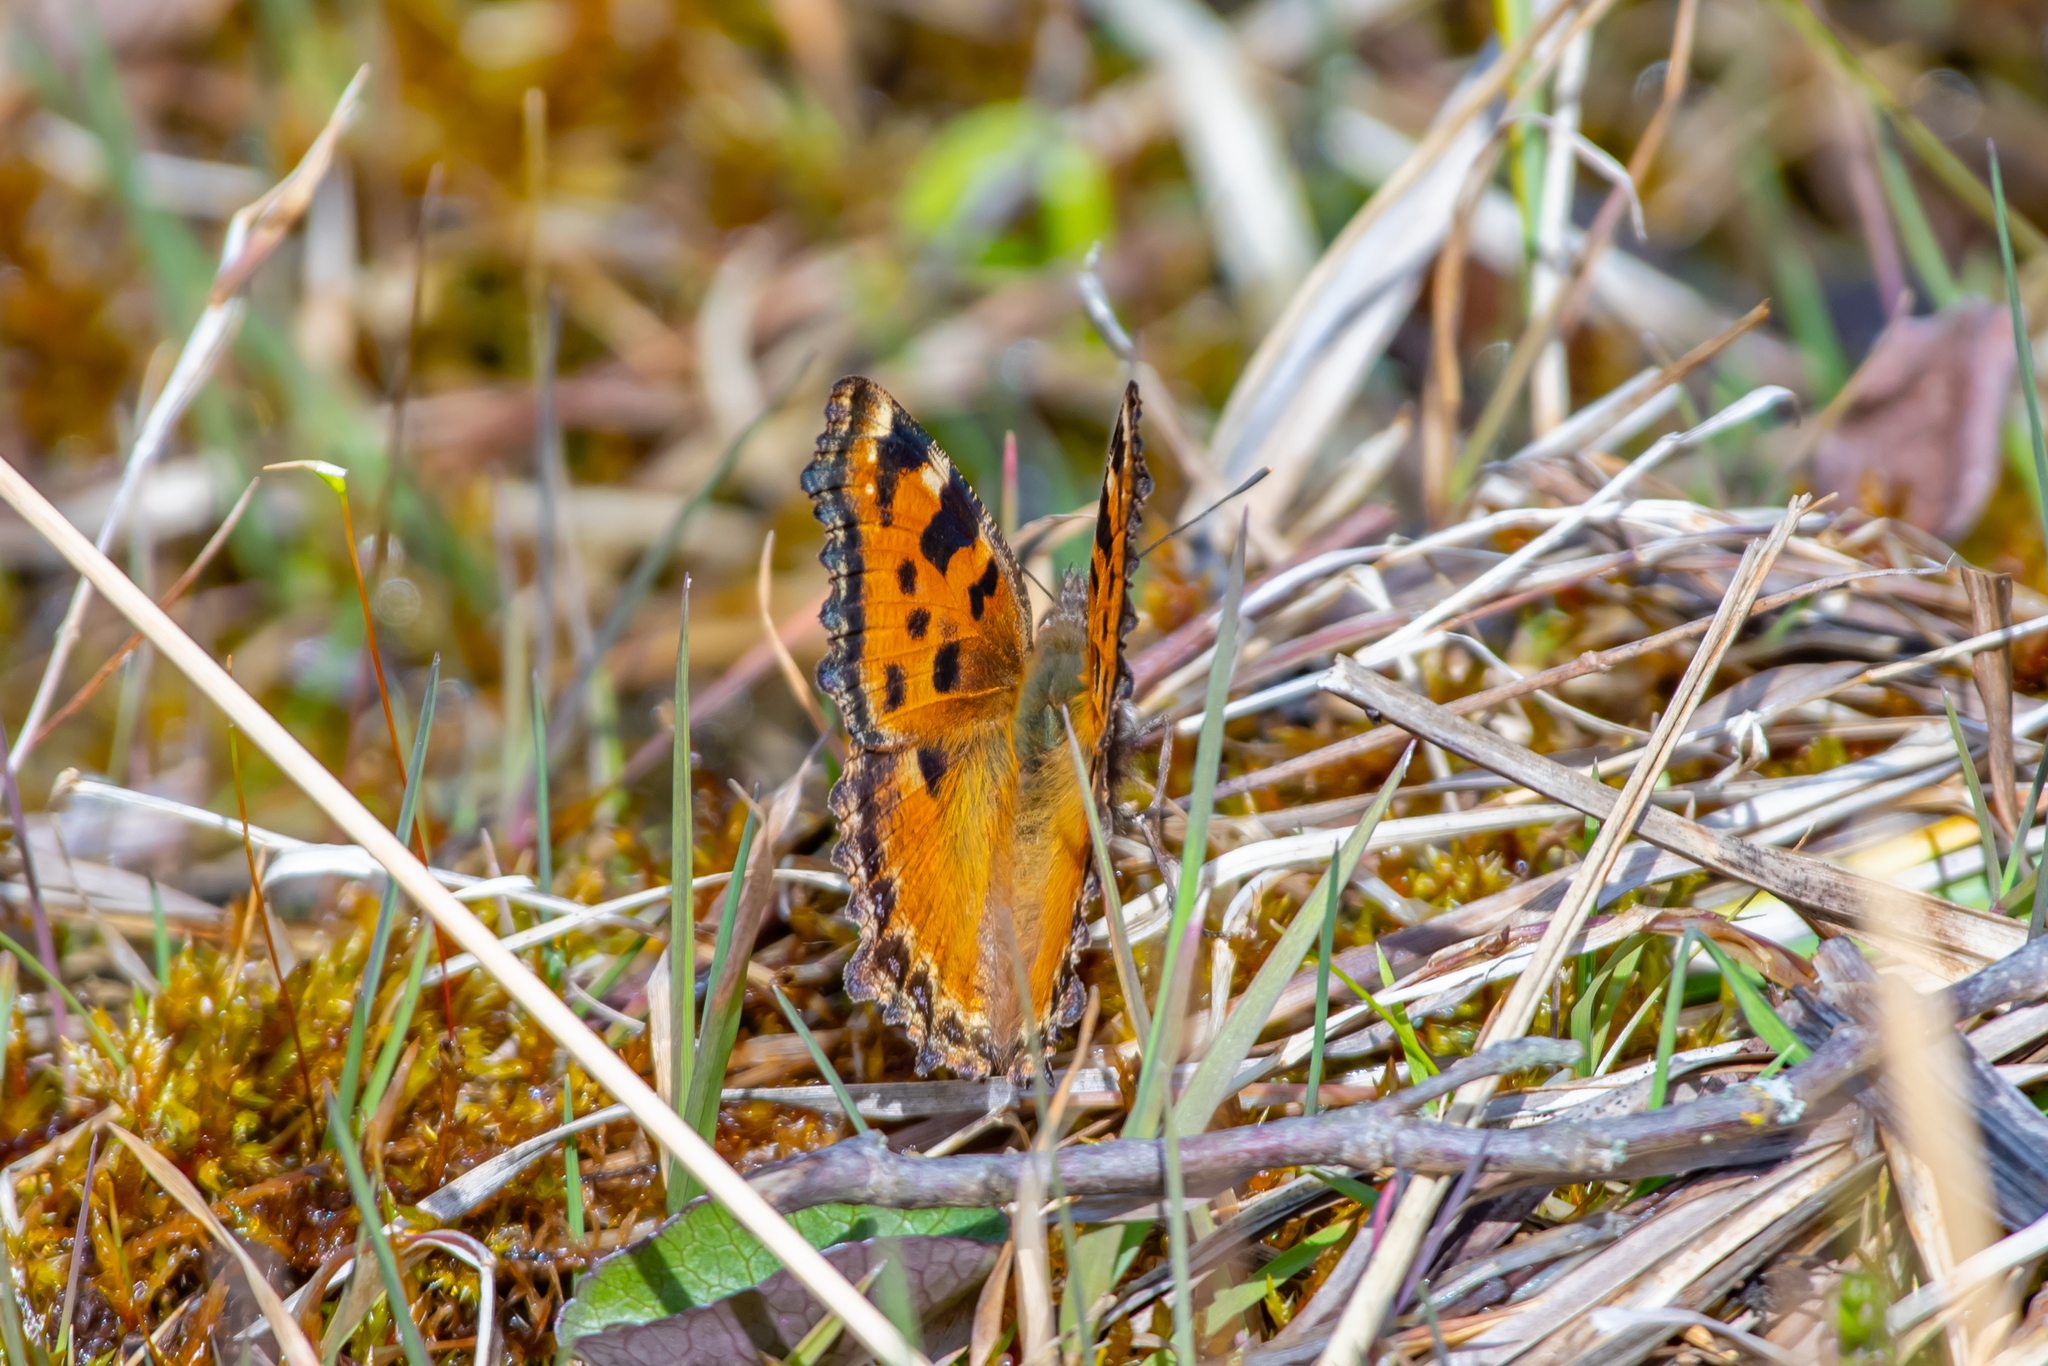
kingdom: Animalia
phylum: Arthropoda
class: Insecta
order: Lepidoptera
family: Nymphalidae
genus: Nymphalis
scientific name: Nymphalis polychloros
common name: Large tortoiseshell
